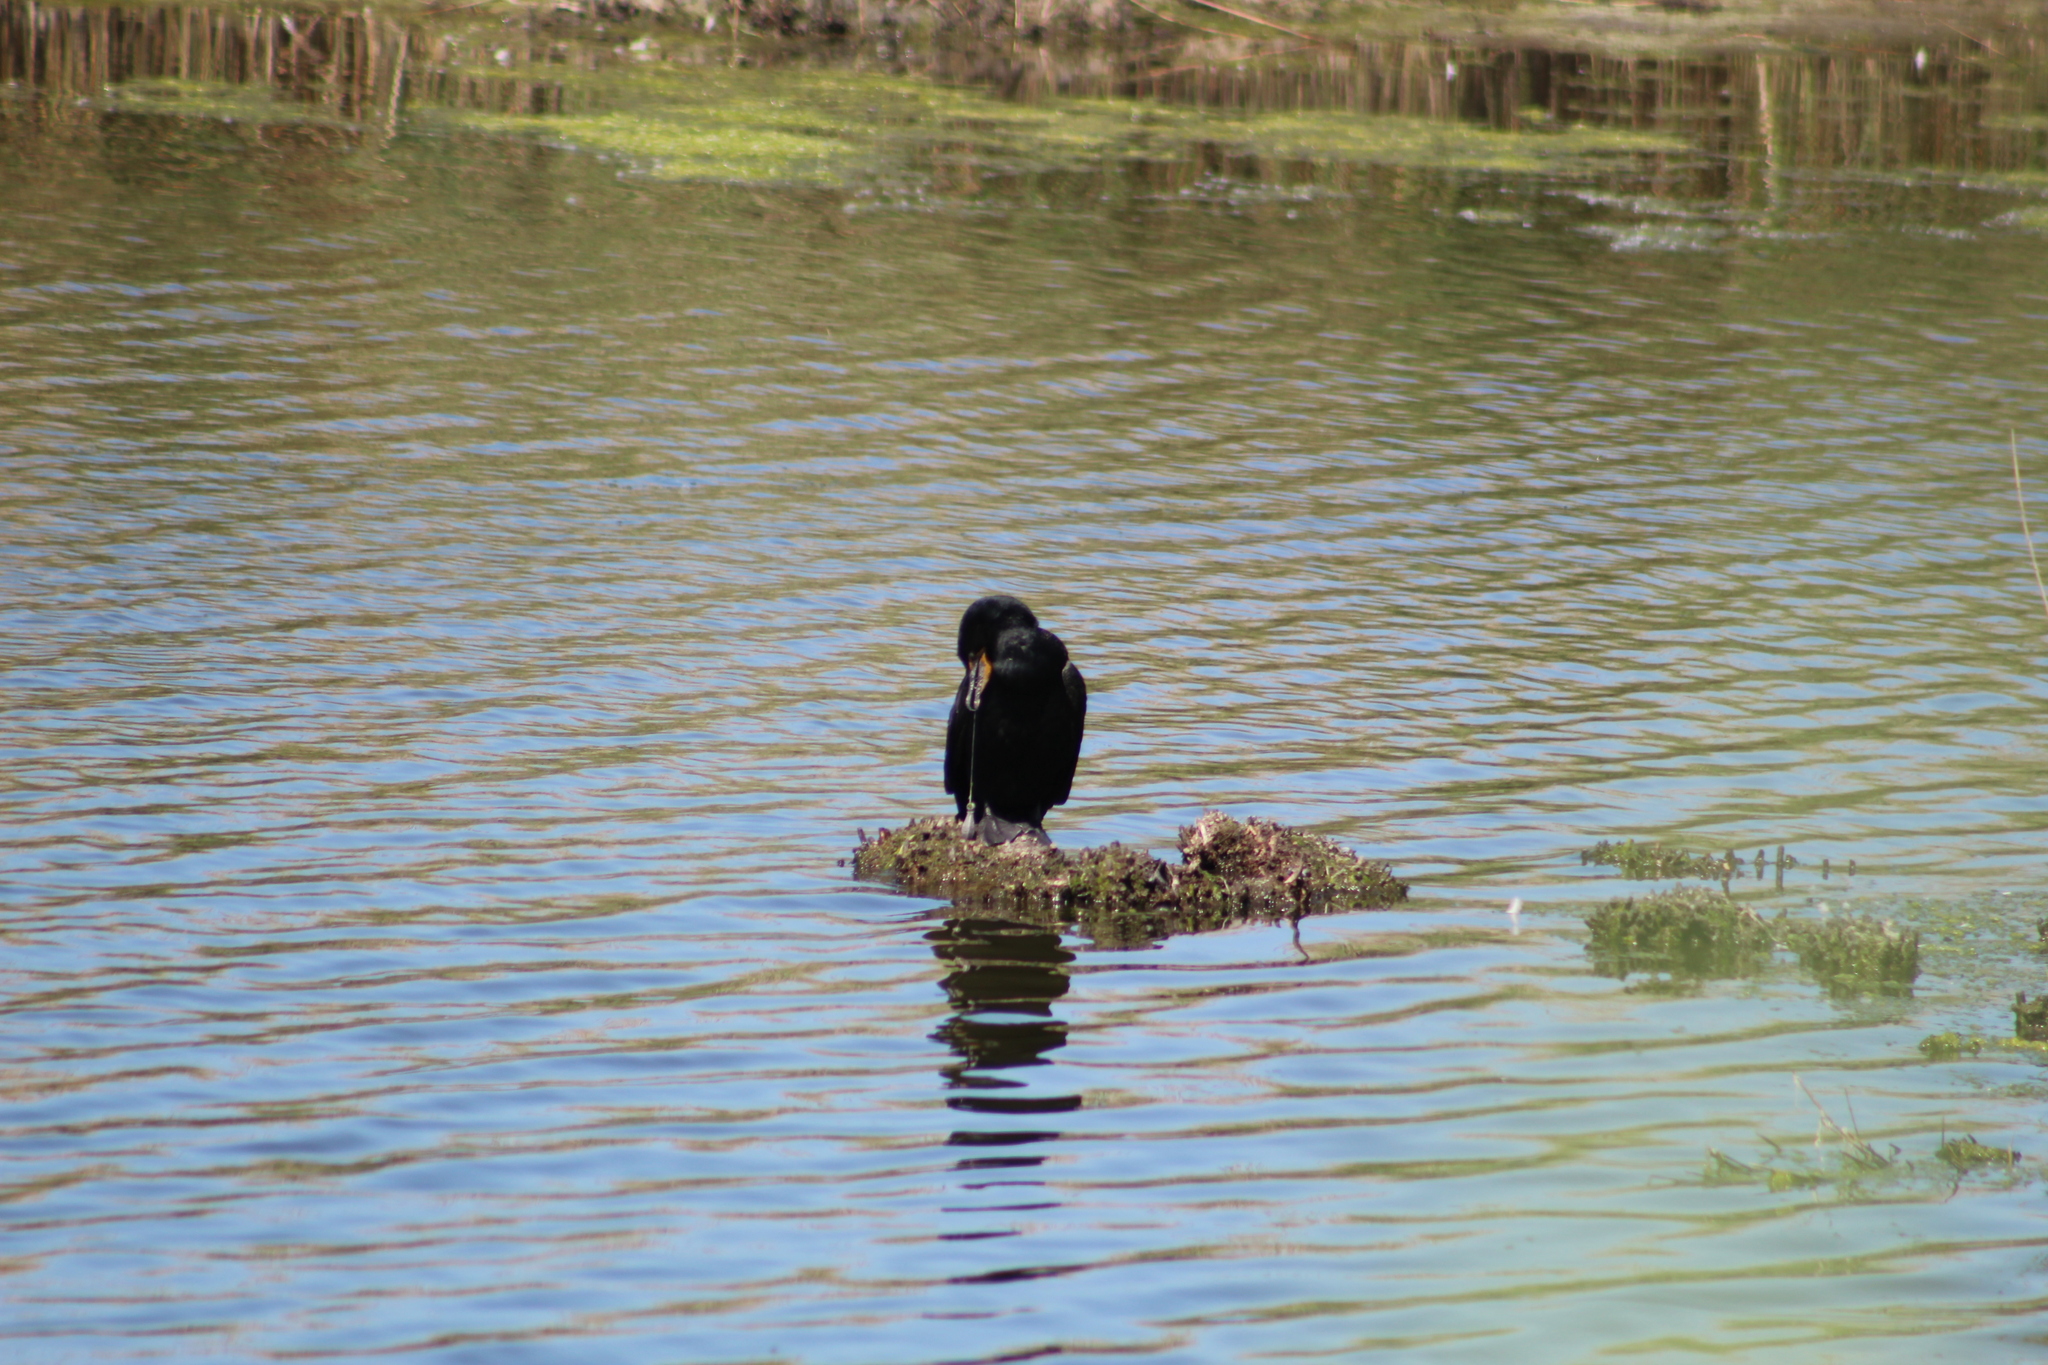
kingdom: Animalia
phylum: Chordata
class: Aves
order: Suliformes
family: Phalacrocoracidae
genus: Phalacrocorax
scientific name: Phalacrocorax auritus
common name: Double-crested cormorant
